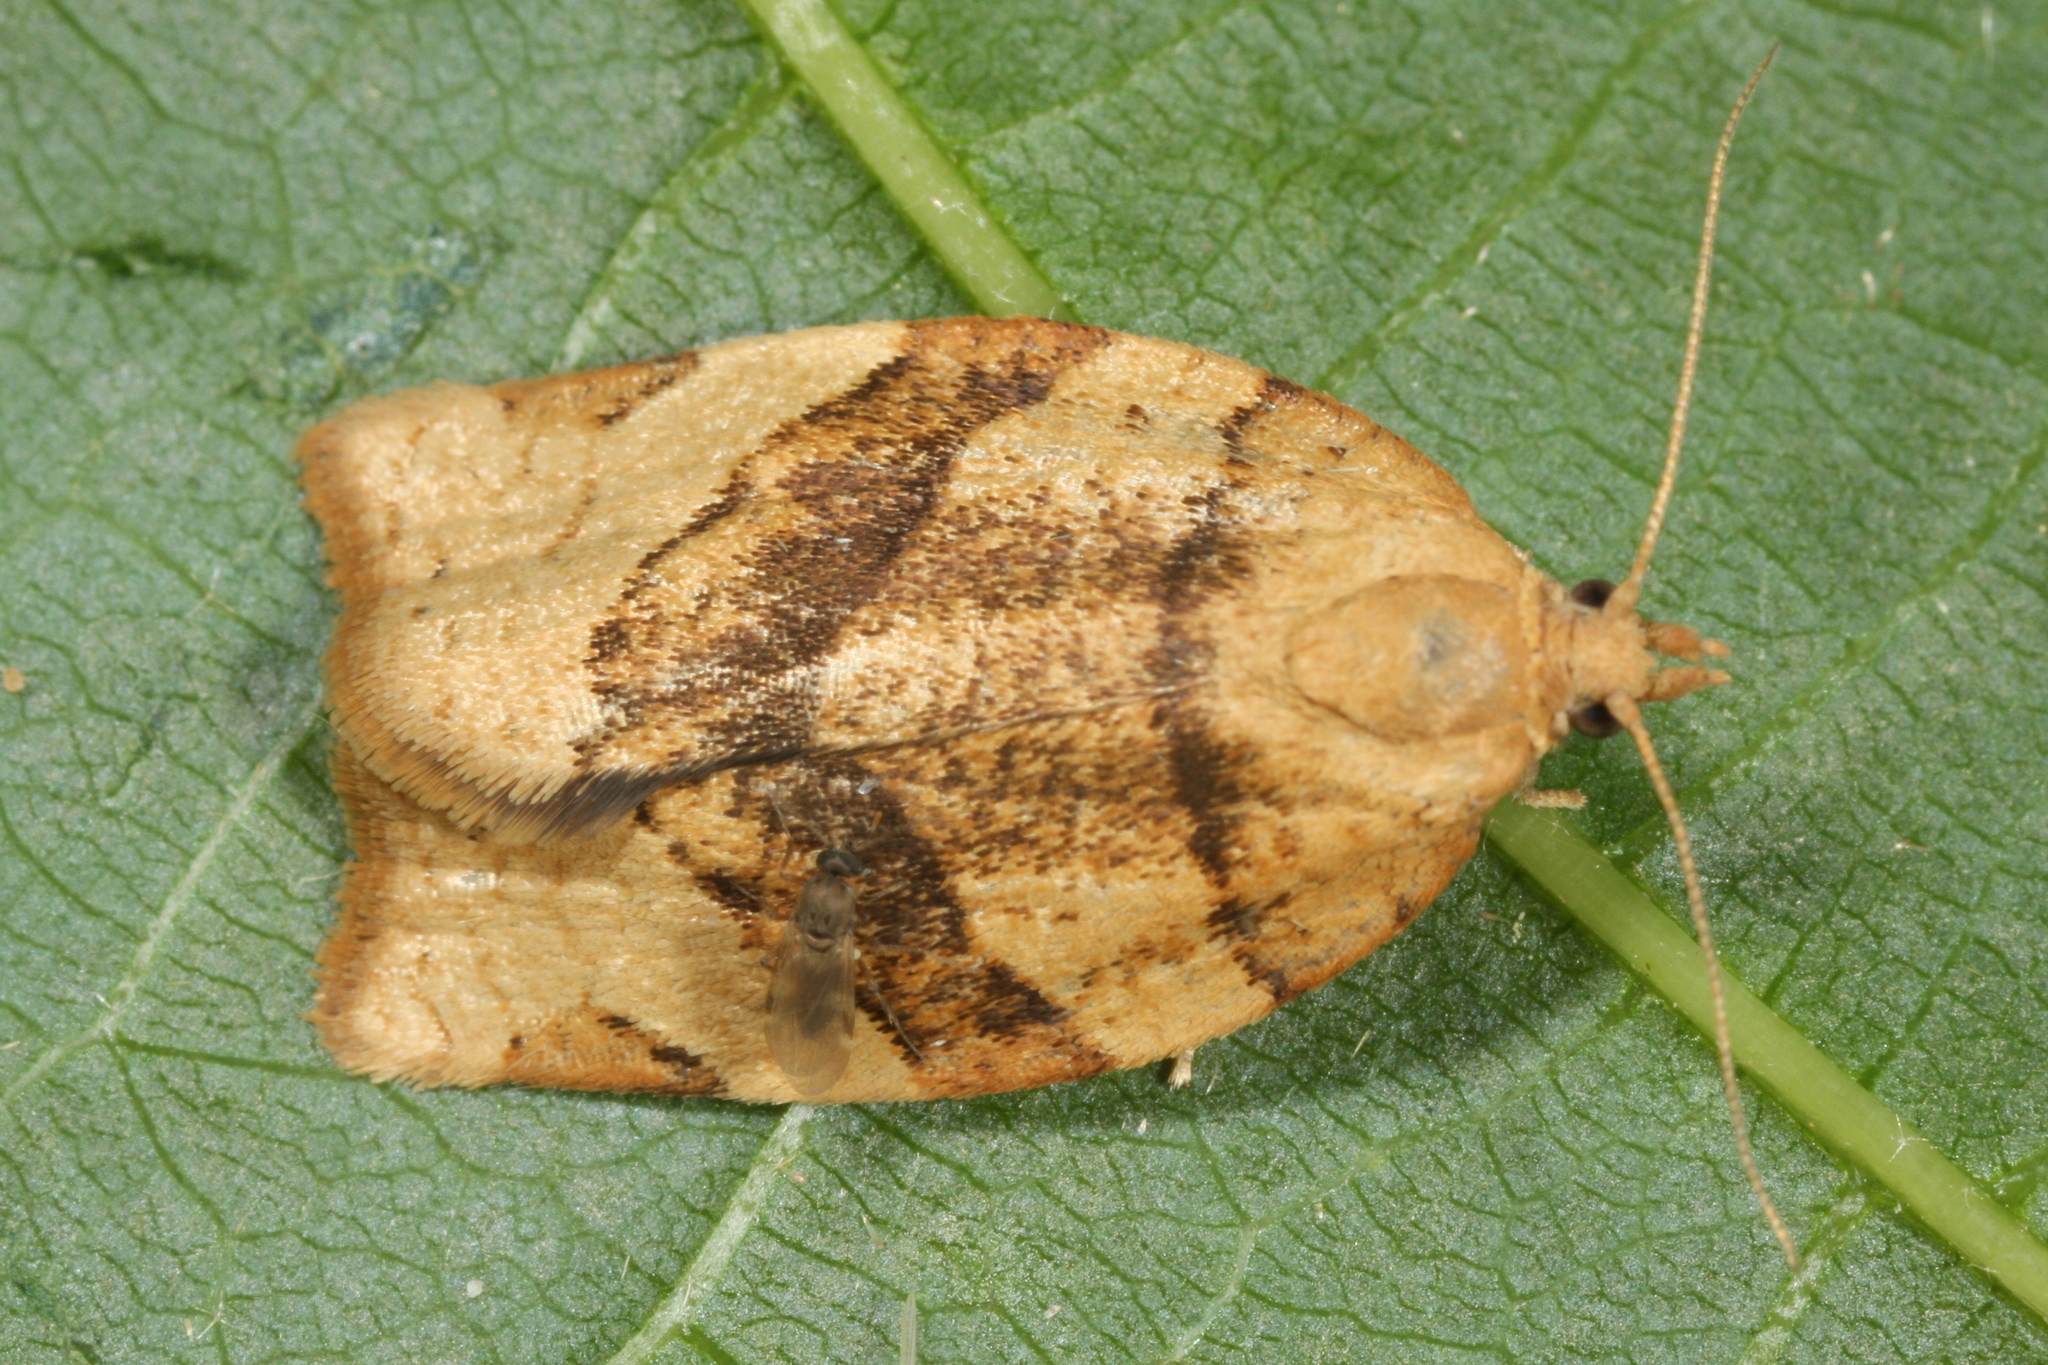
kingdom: Animalia
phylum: Arthropoda
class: Insecta
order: Lepidoptera
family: Tortricidae
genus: Pandemis
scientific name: Pandemis cerasana
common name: Barred fruit-tree tortrix
